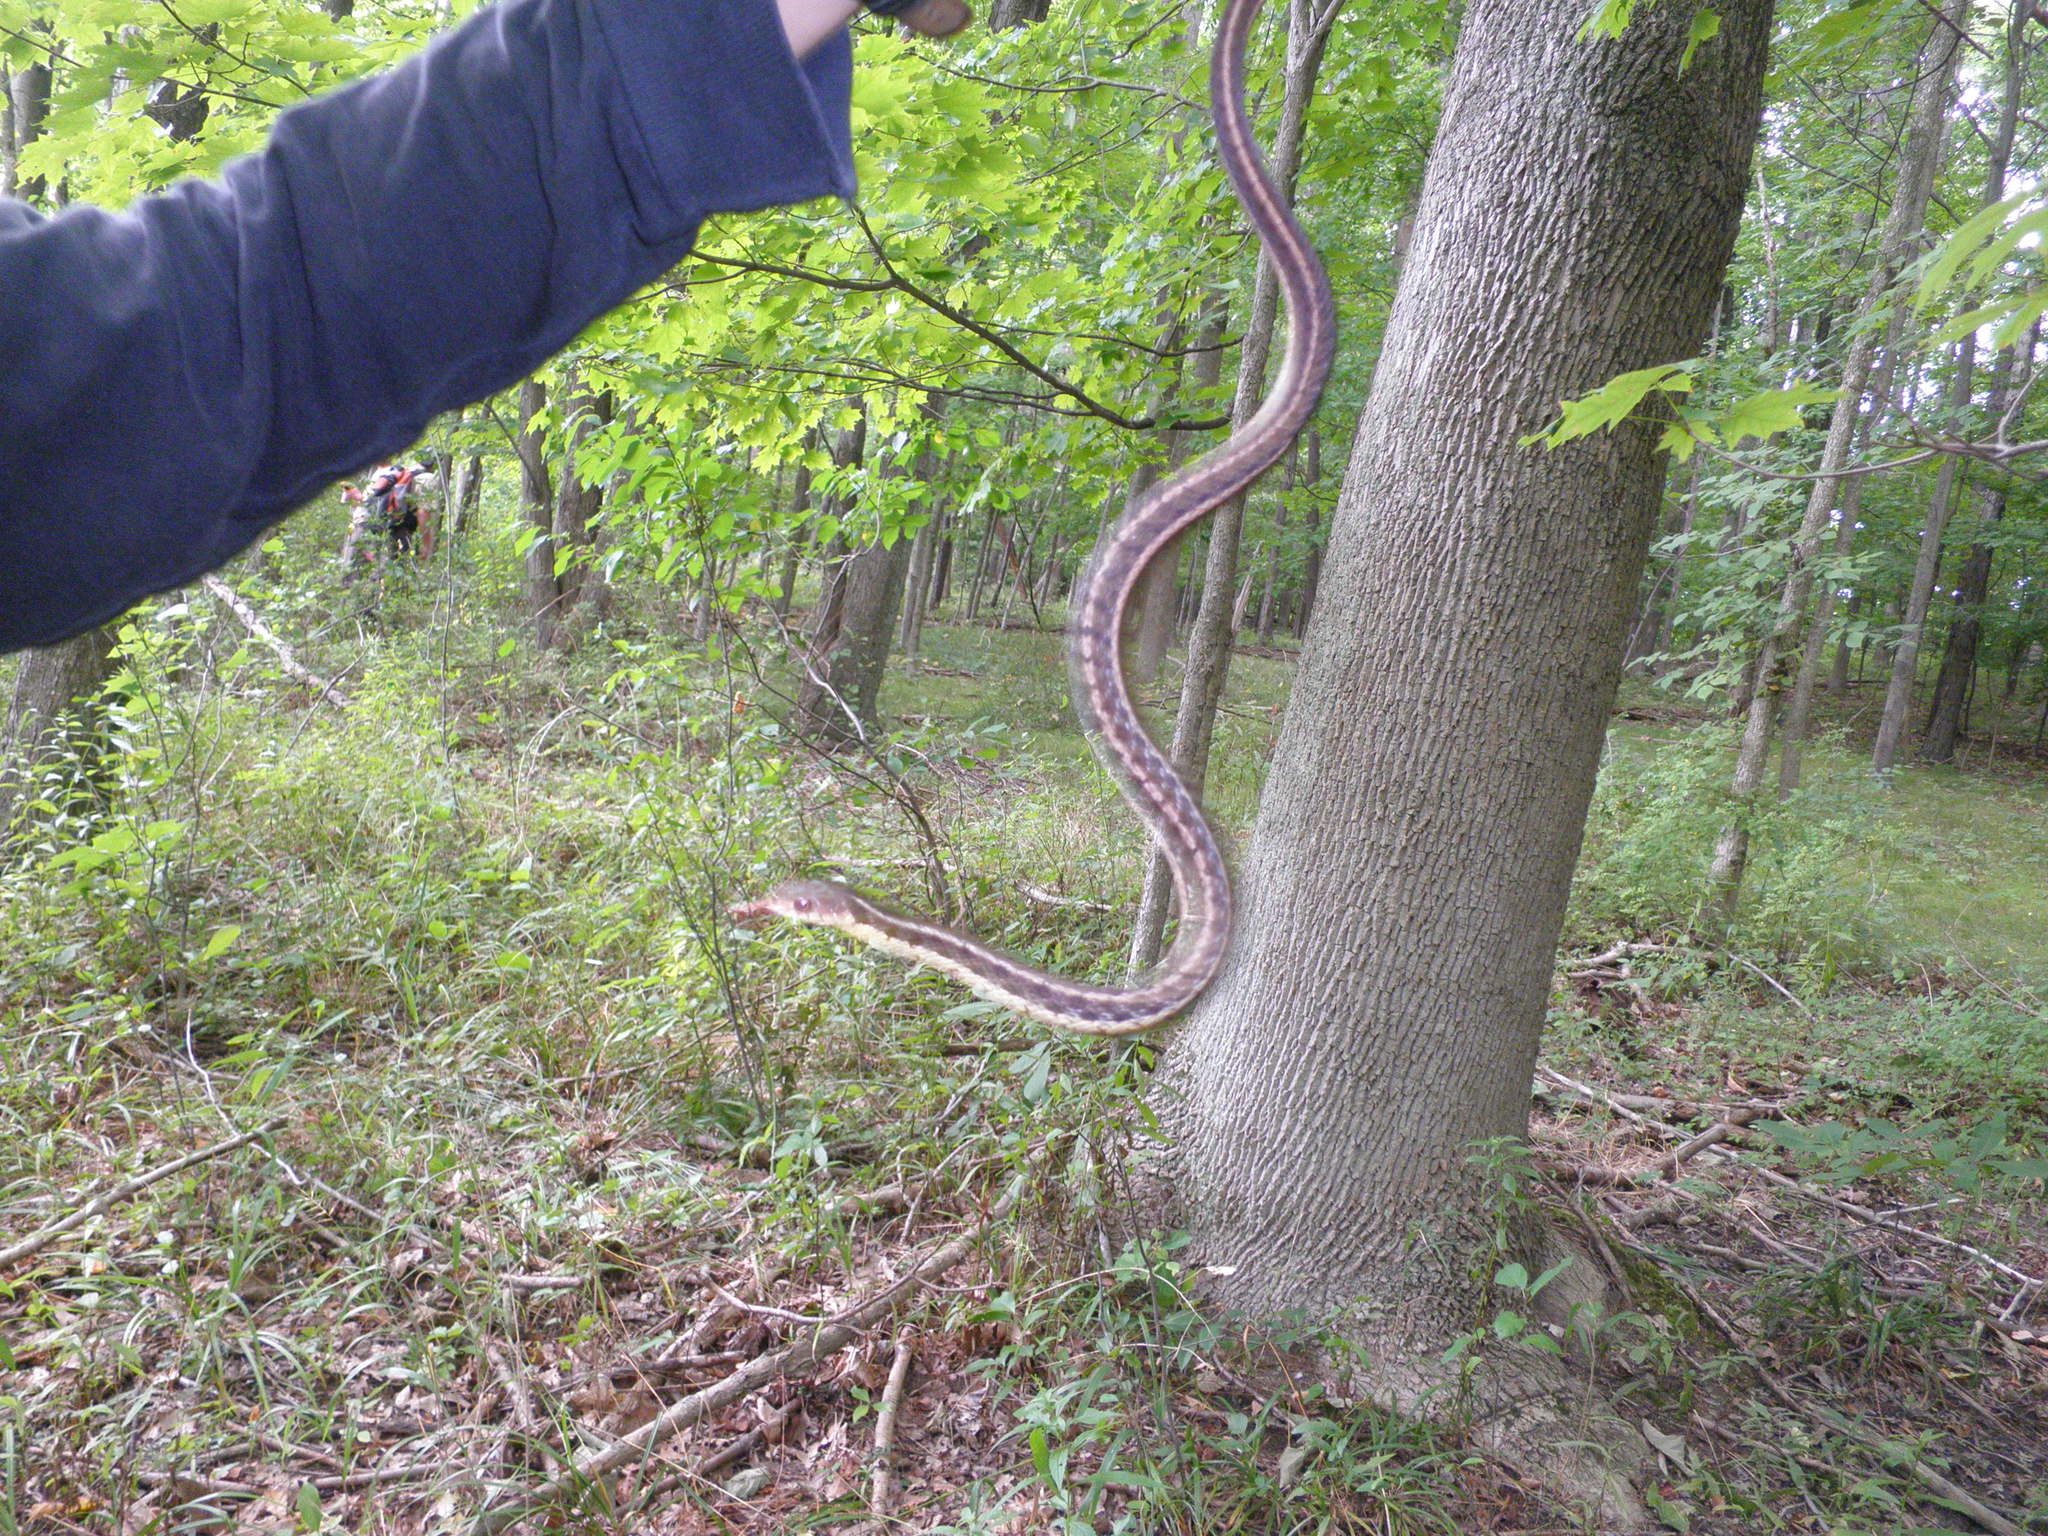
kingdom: Animalia
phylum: Chordata
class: Squamata
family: Colubridae
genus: Thamnophis
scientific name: Thamnophis sirtalis
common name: Common garter snake
